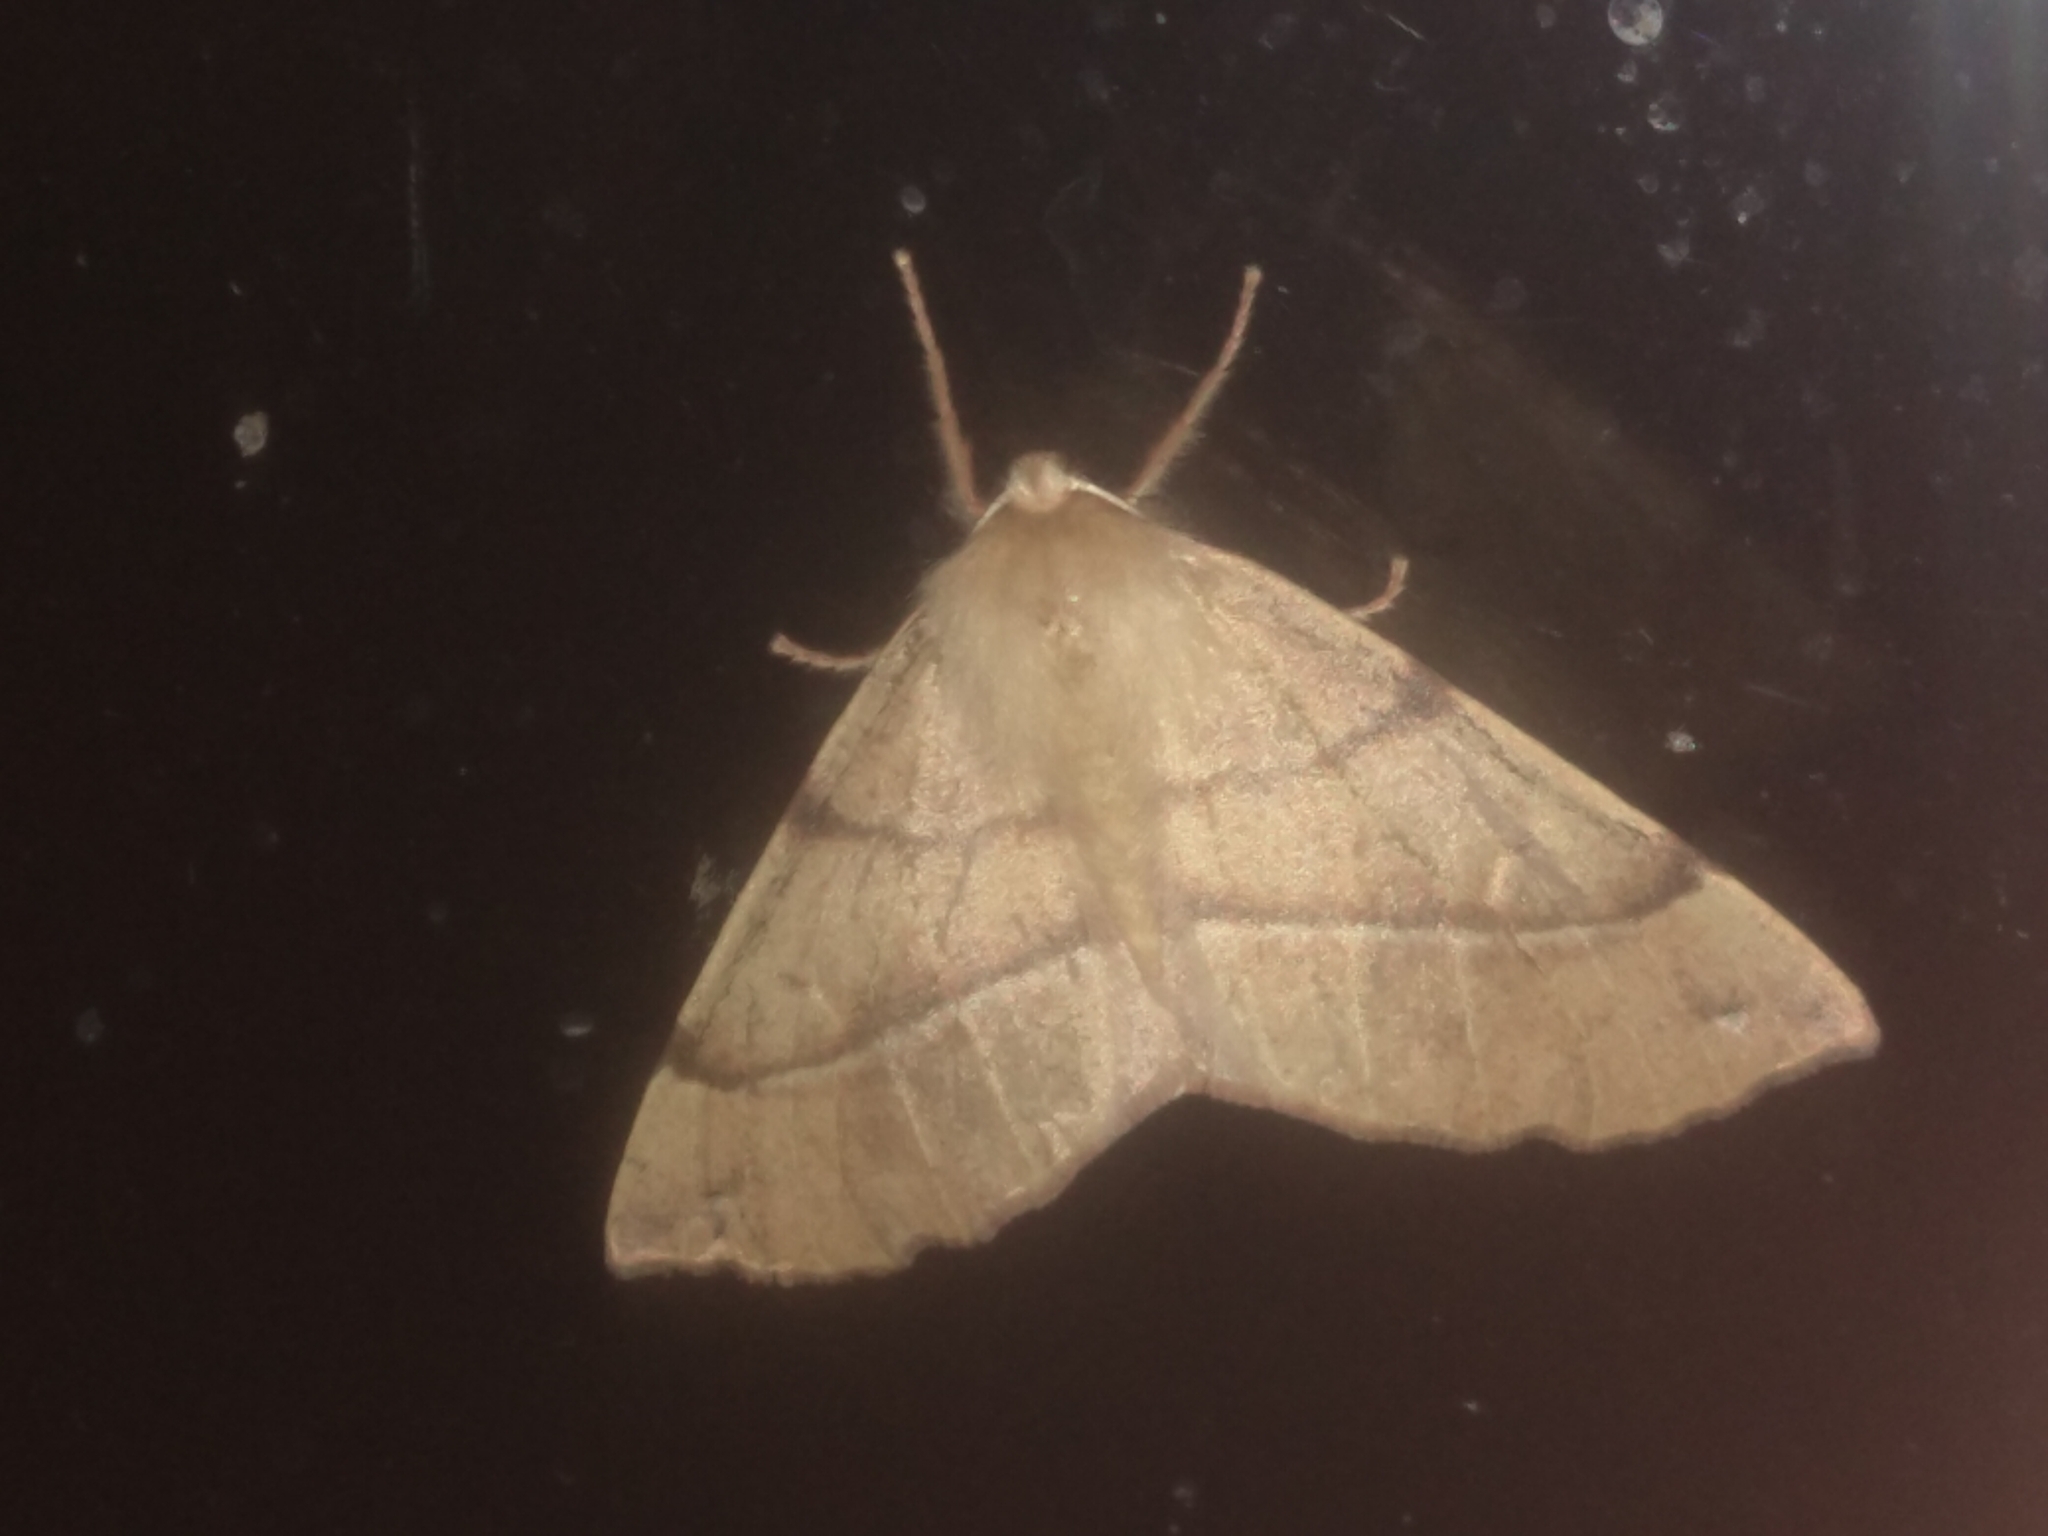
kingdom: Animalia
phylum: Arthropoda
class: Insecta
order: Lepidoptera
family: Geometridae
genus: Colotois
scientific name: Colotois pennaria
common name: Feathered thorn
